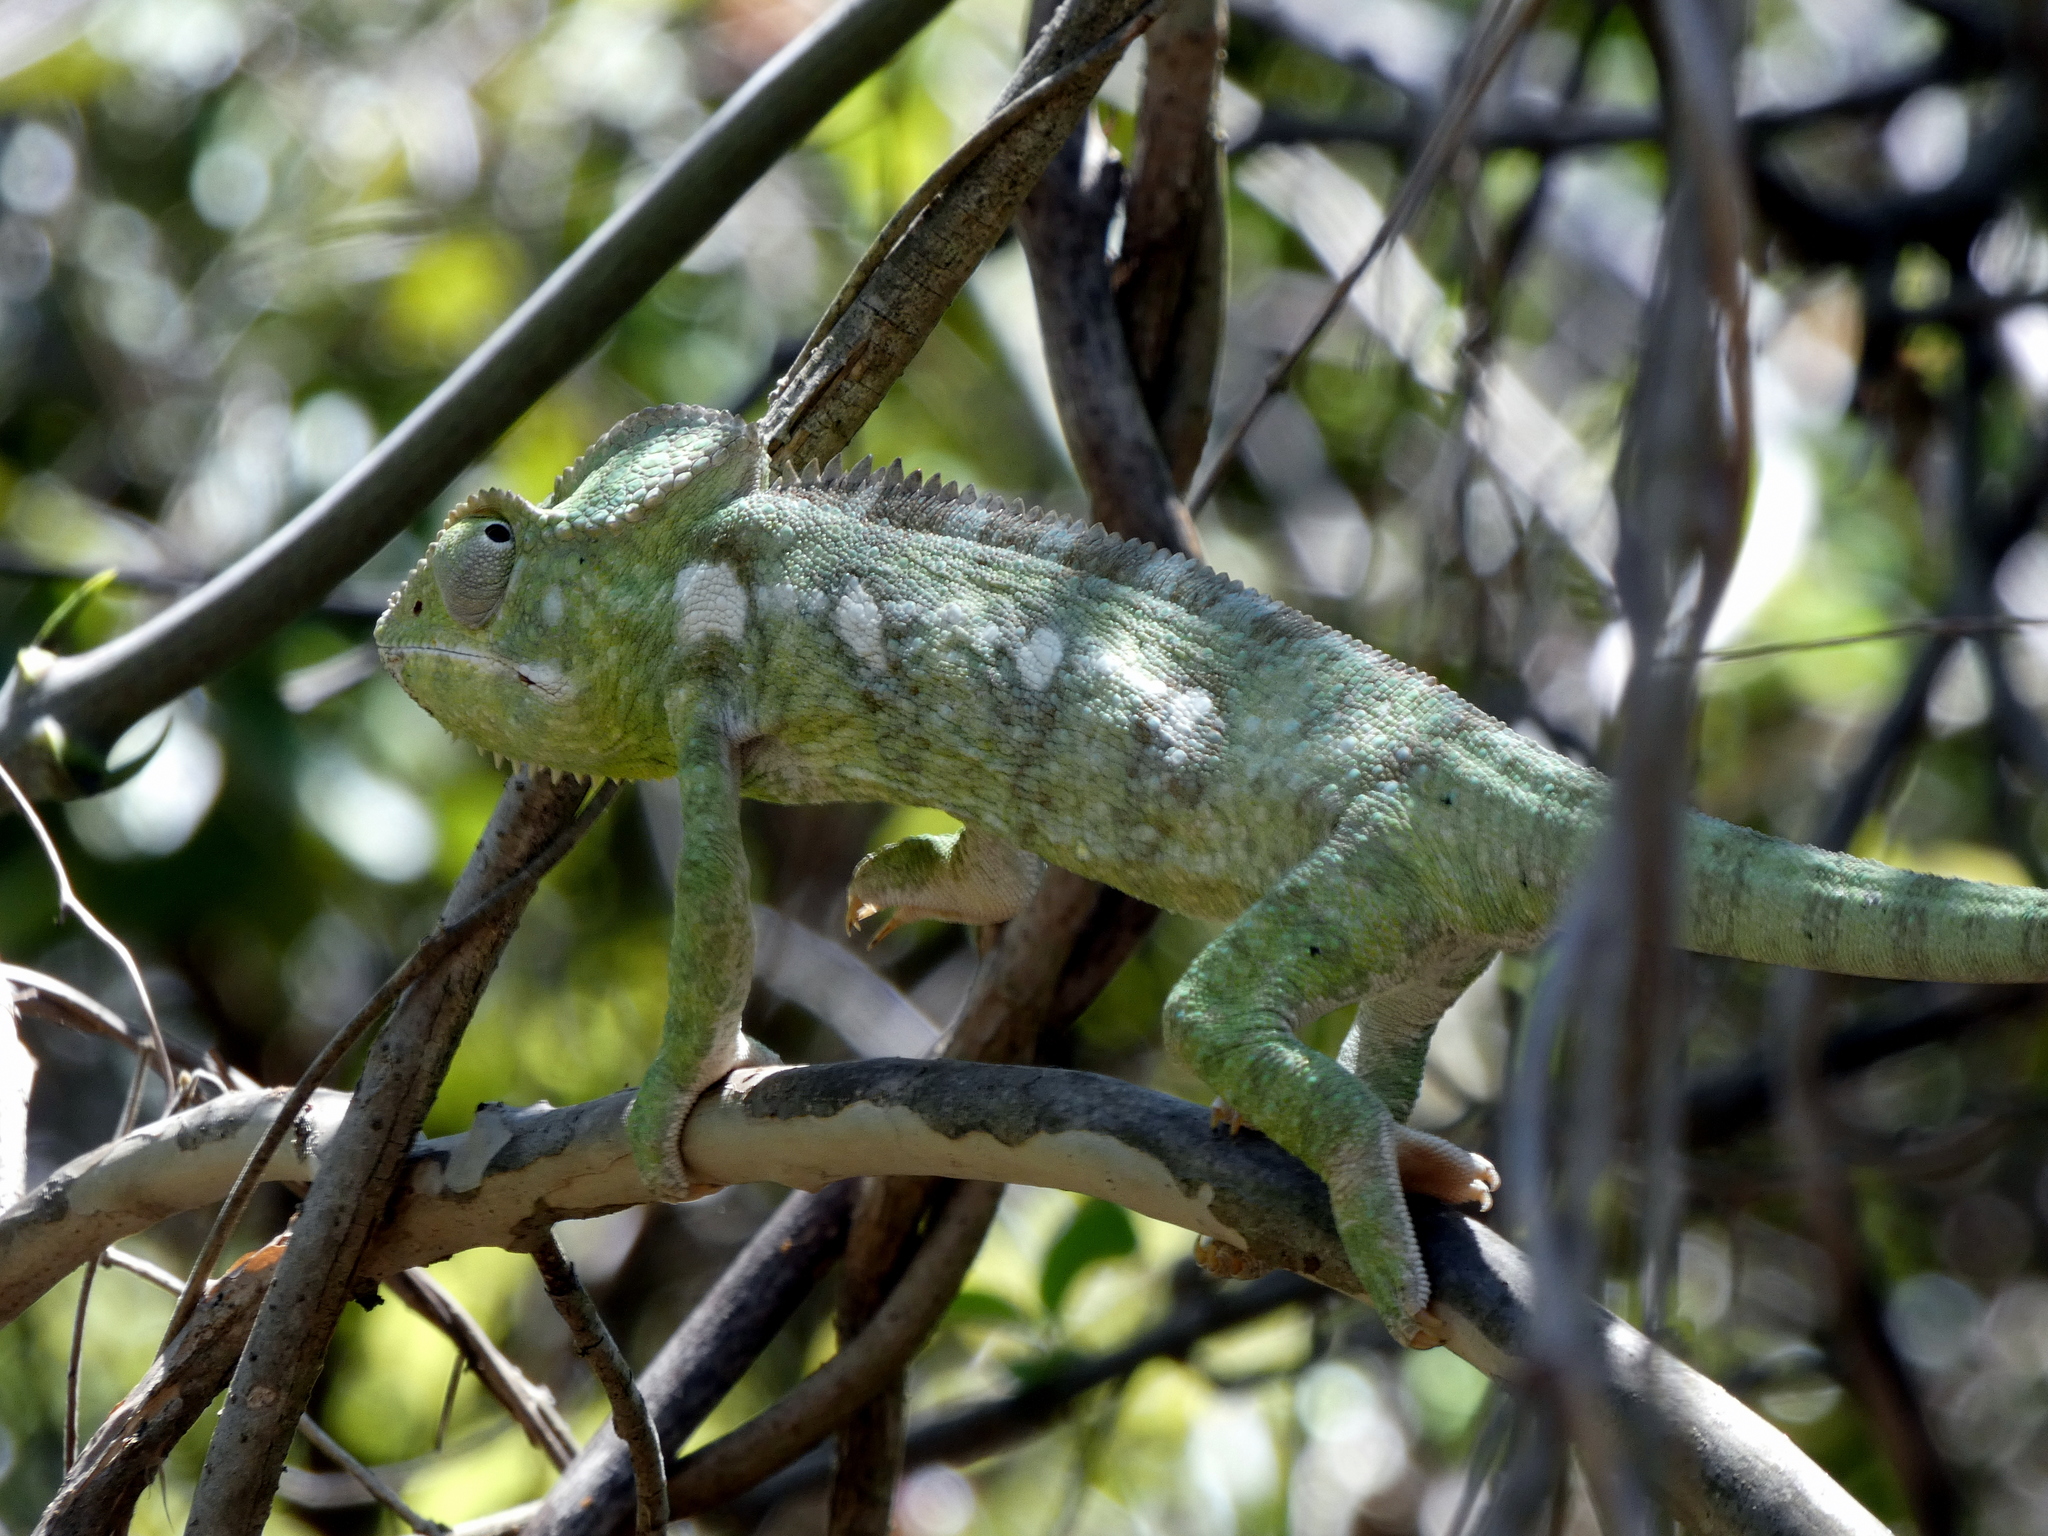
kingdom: Animalia
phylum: Chordata
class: Squamata
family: Chamaeleonidae
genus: Furcifer
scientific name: Furcifer oustaleti
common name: Oustalet's chameleon
